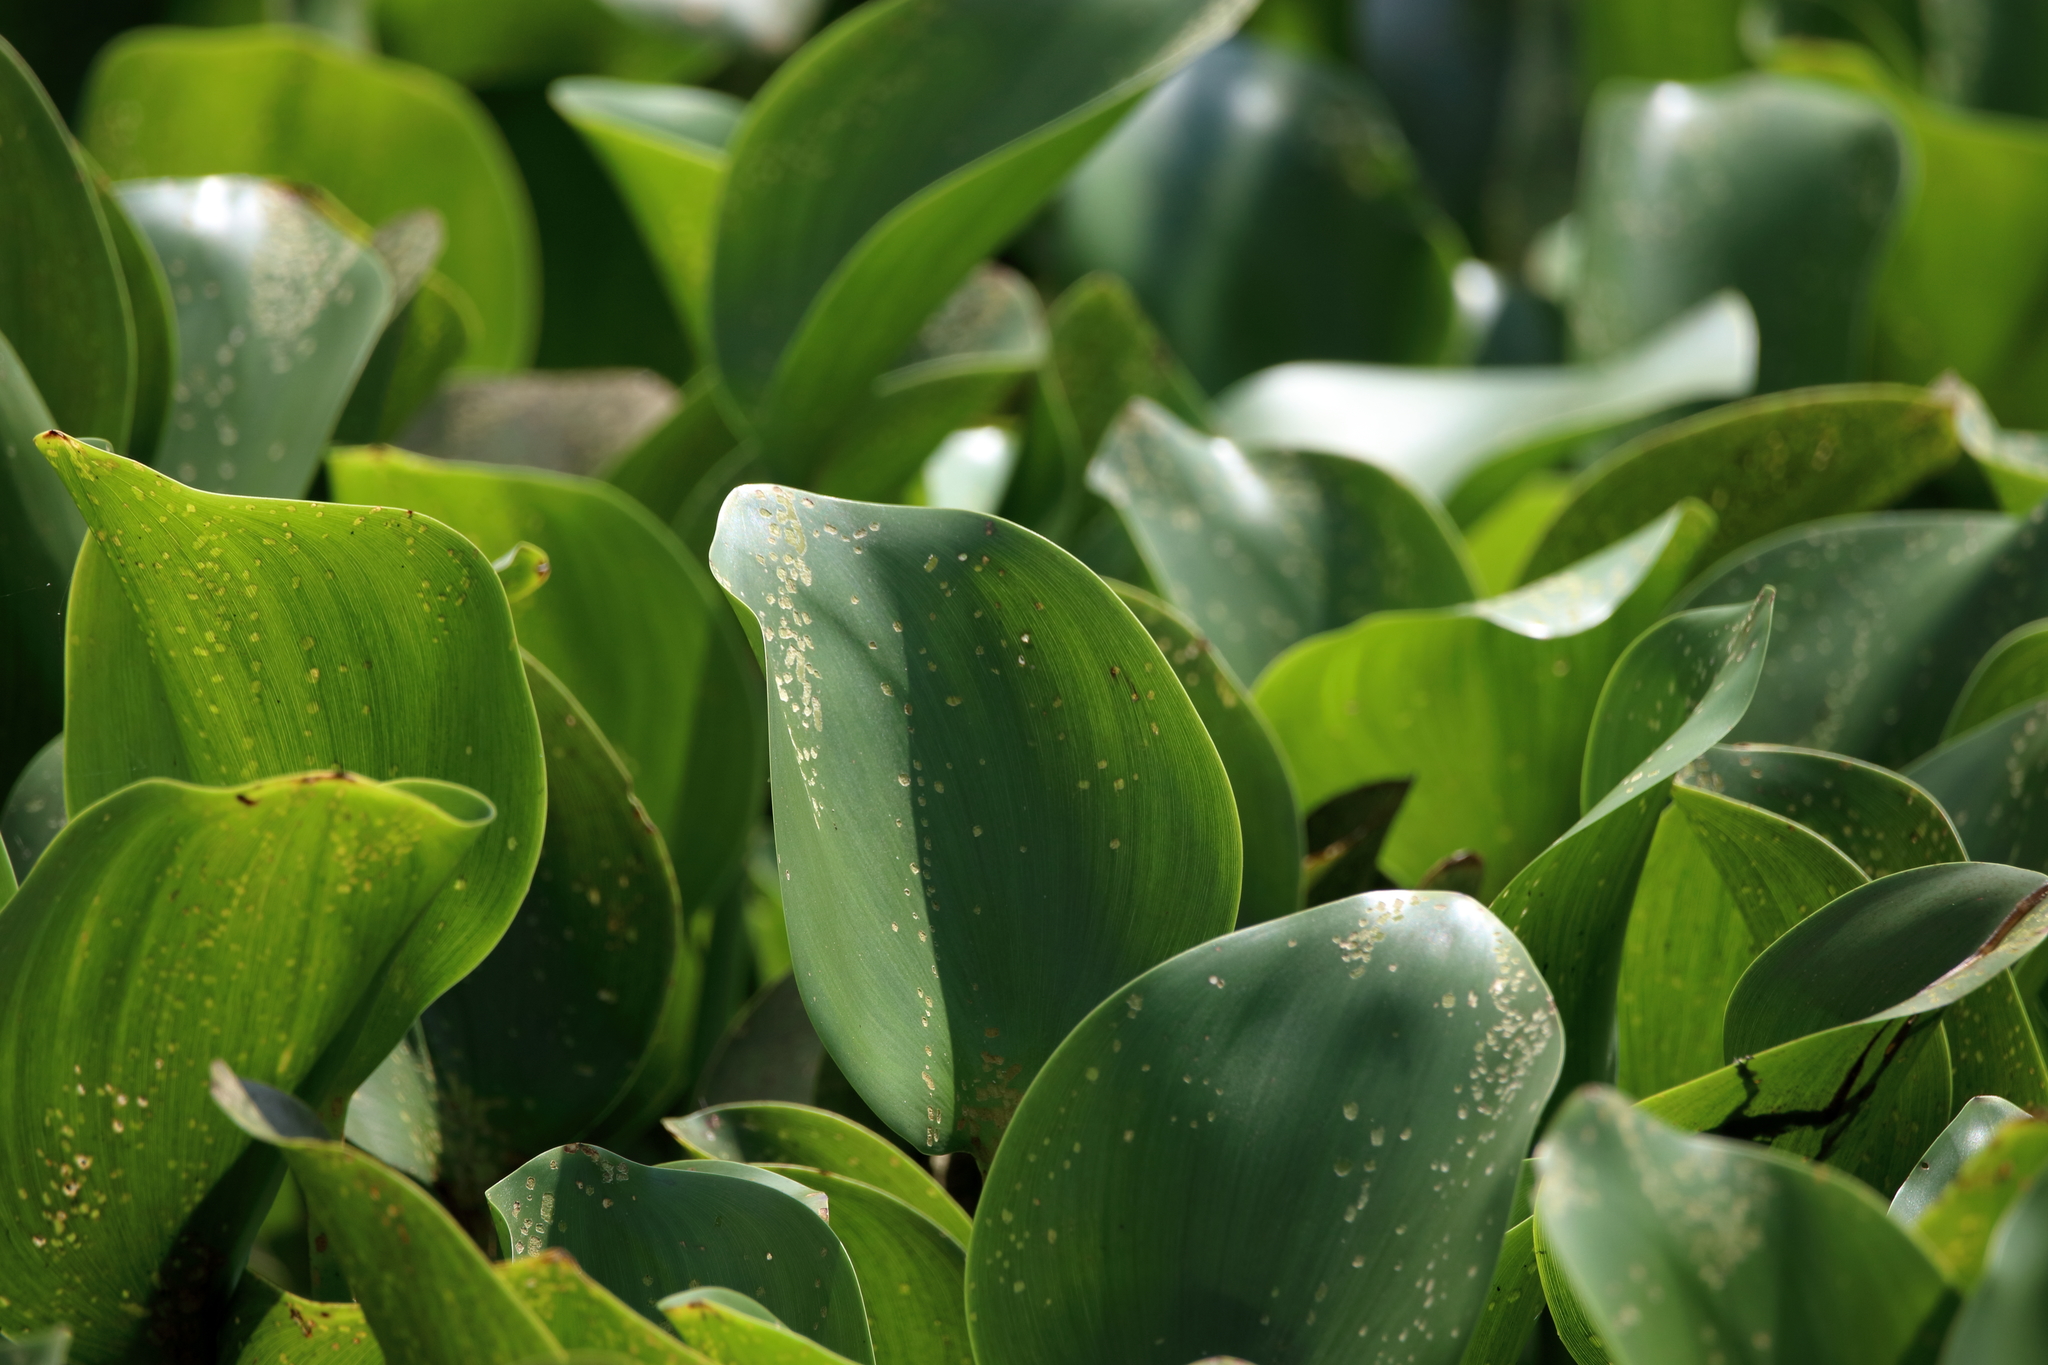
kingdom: Plantae
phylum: Tracheophyta
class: Liliopsida
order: Commelinales
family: Pontederiaceae
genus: Pontederia
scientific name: Pontederia crassipes
